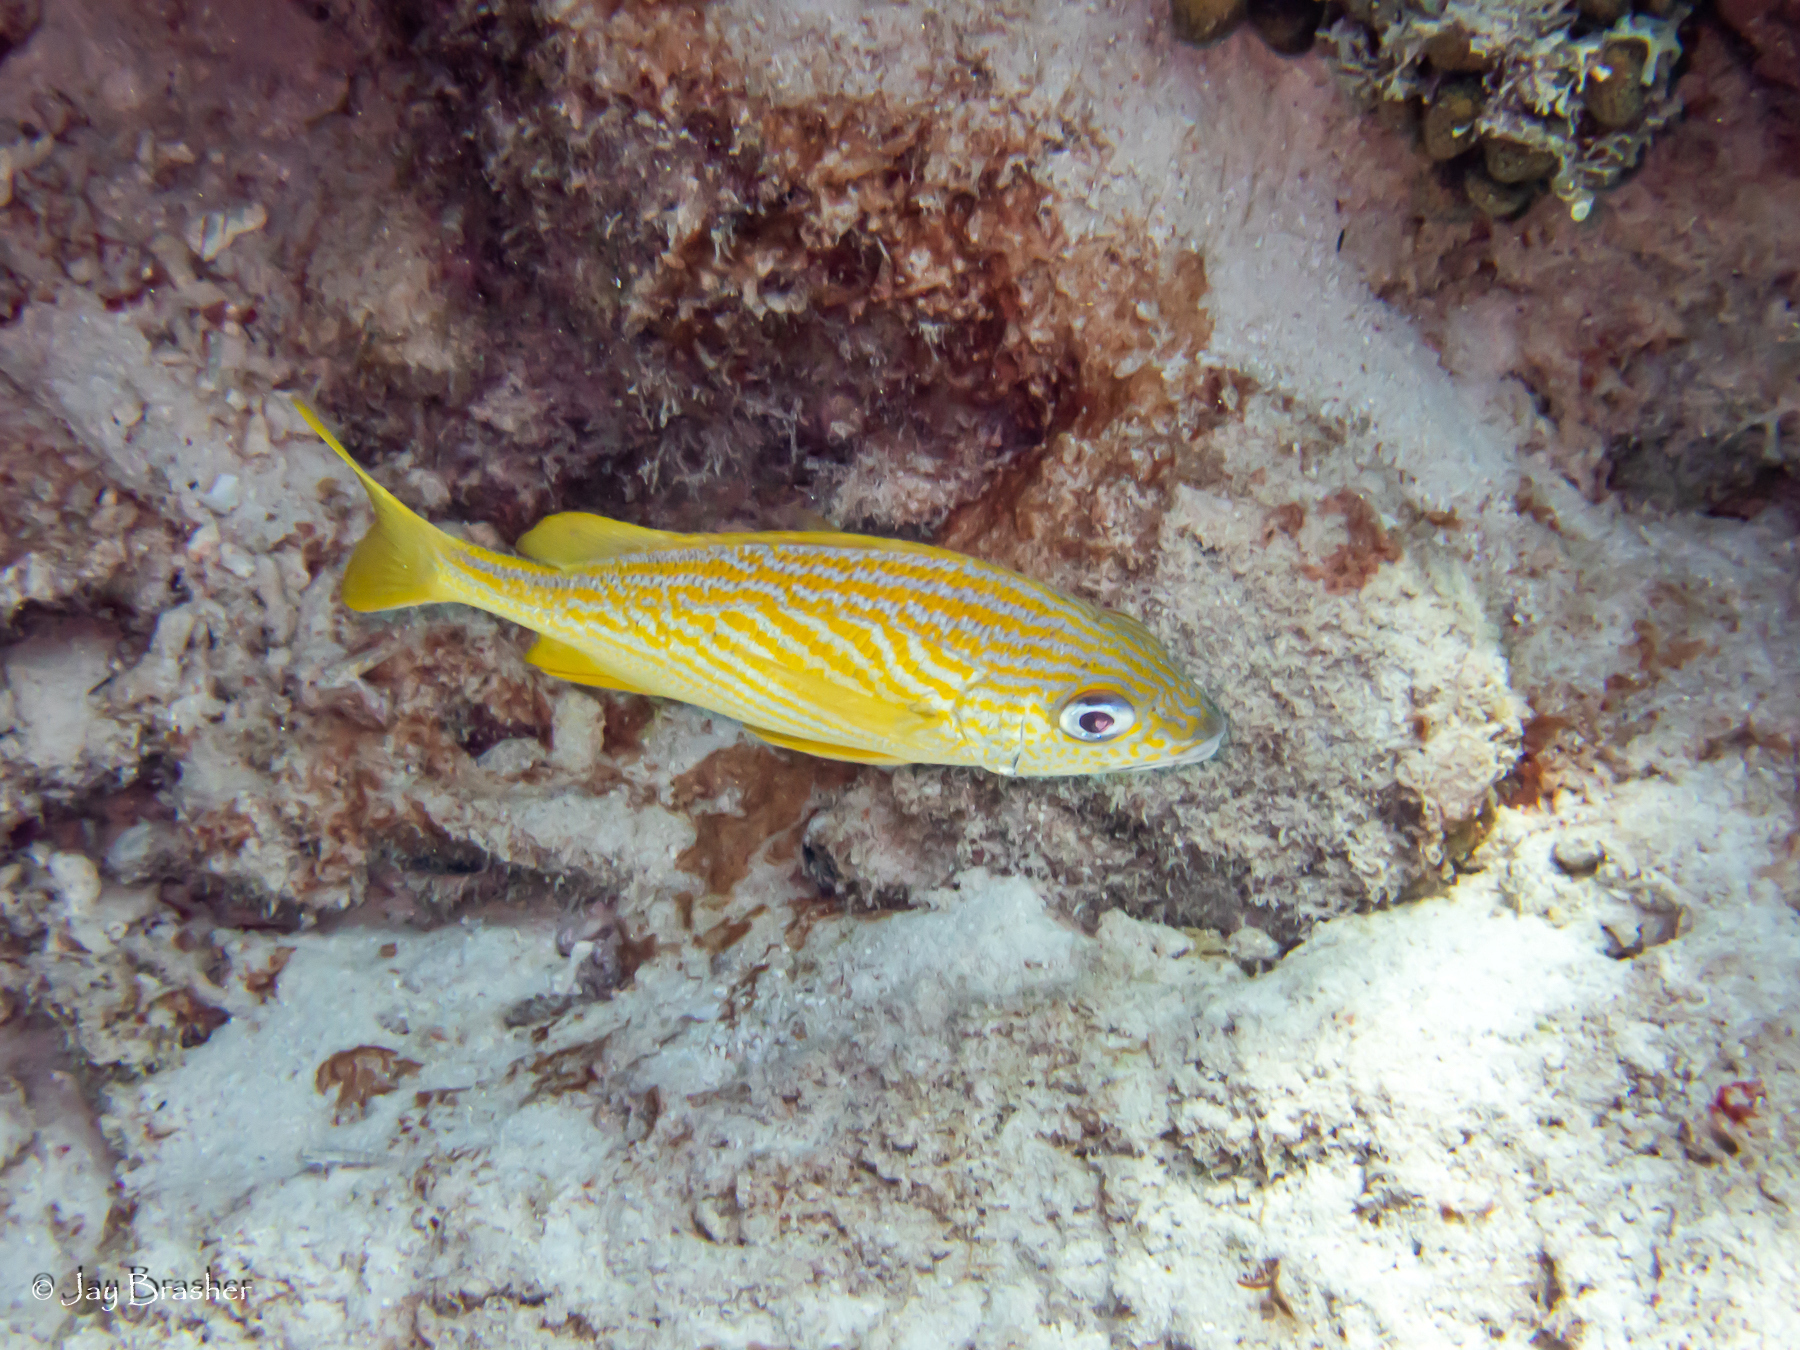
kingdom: Animalia
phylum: Chordata
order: Perciformes
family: Haemulidae
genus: Haemulon
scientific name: Haemulon flavolineatum
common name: French grunt
